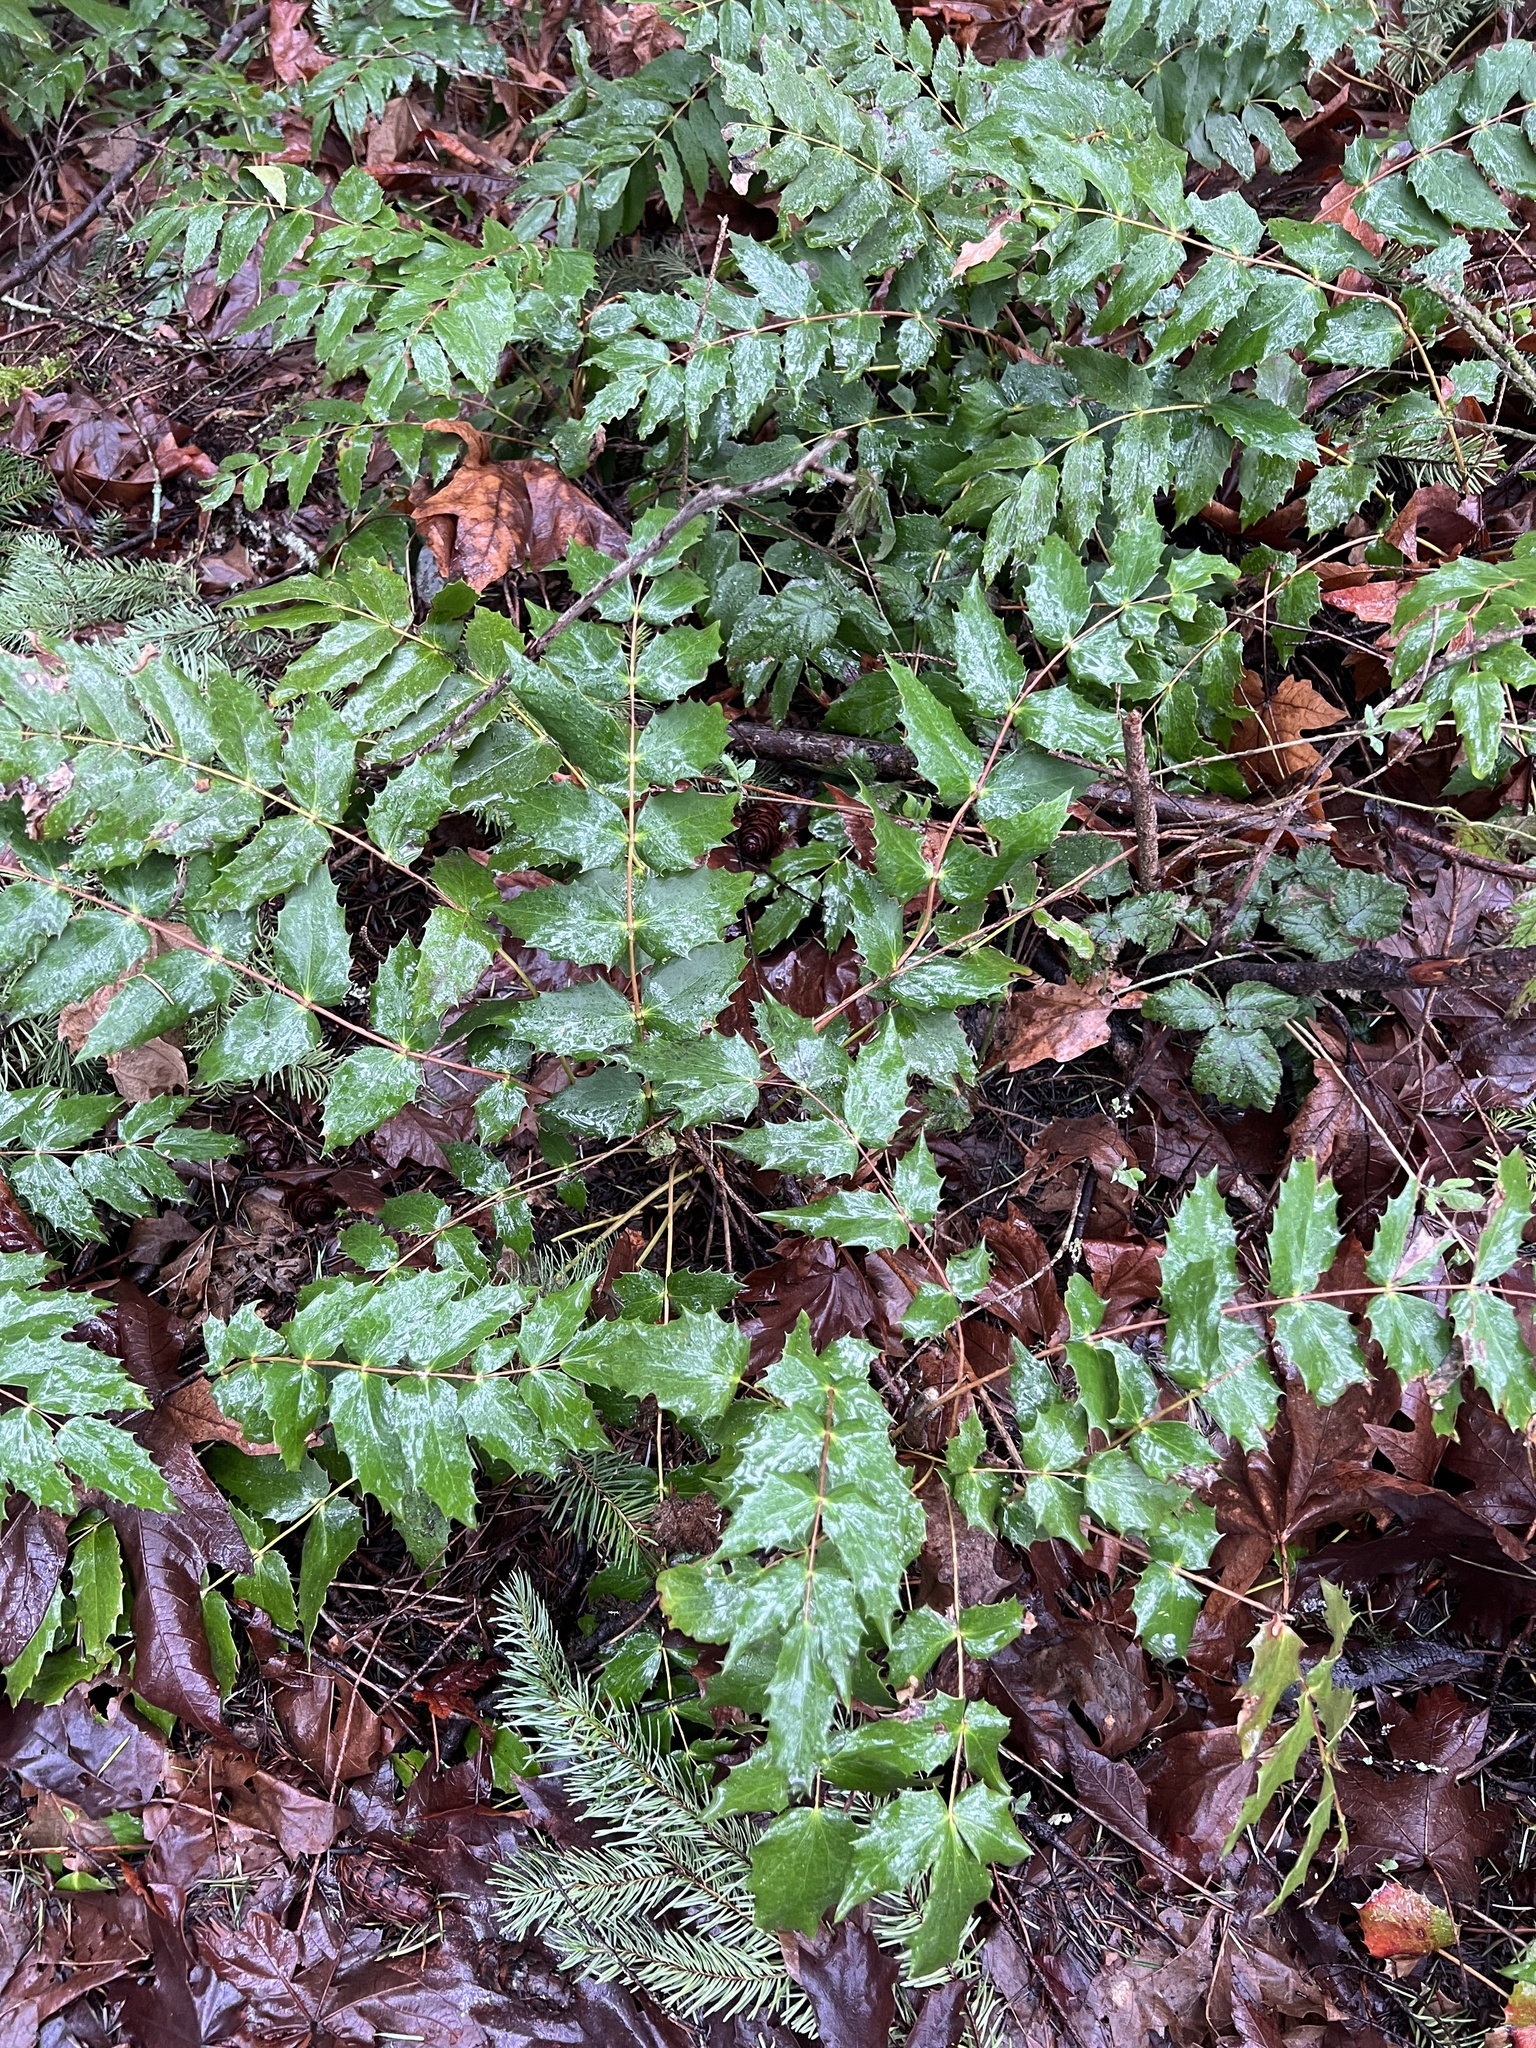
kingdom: Plantae
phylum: Tracheophyta
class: Magnoliopsida
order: Ranunculales
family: Berberidaceae
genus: Mahonia
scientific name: Mahonia nervosa
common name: Cascade oregon-grape
